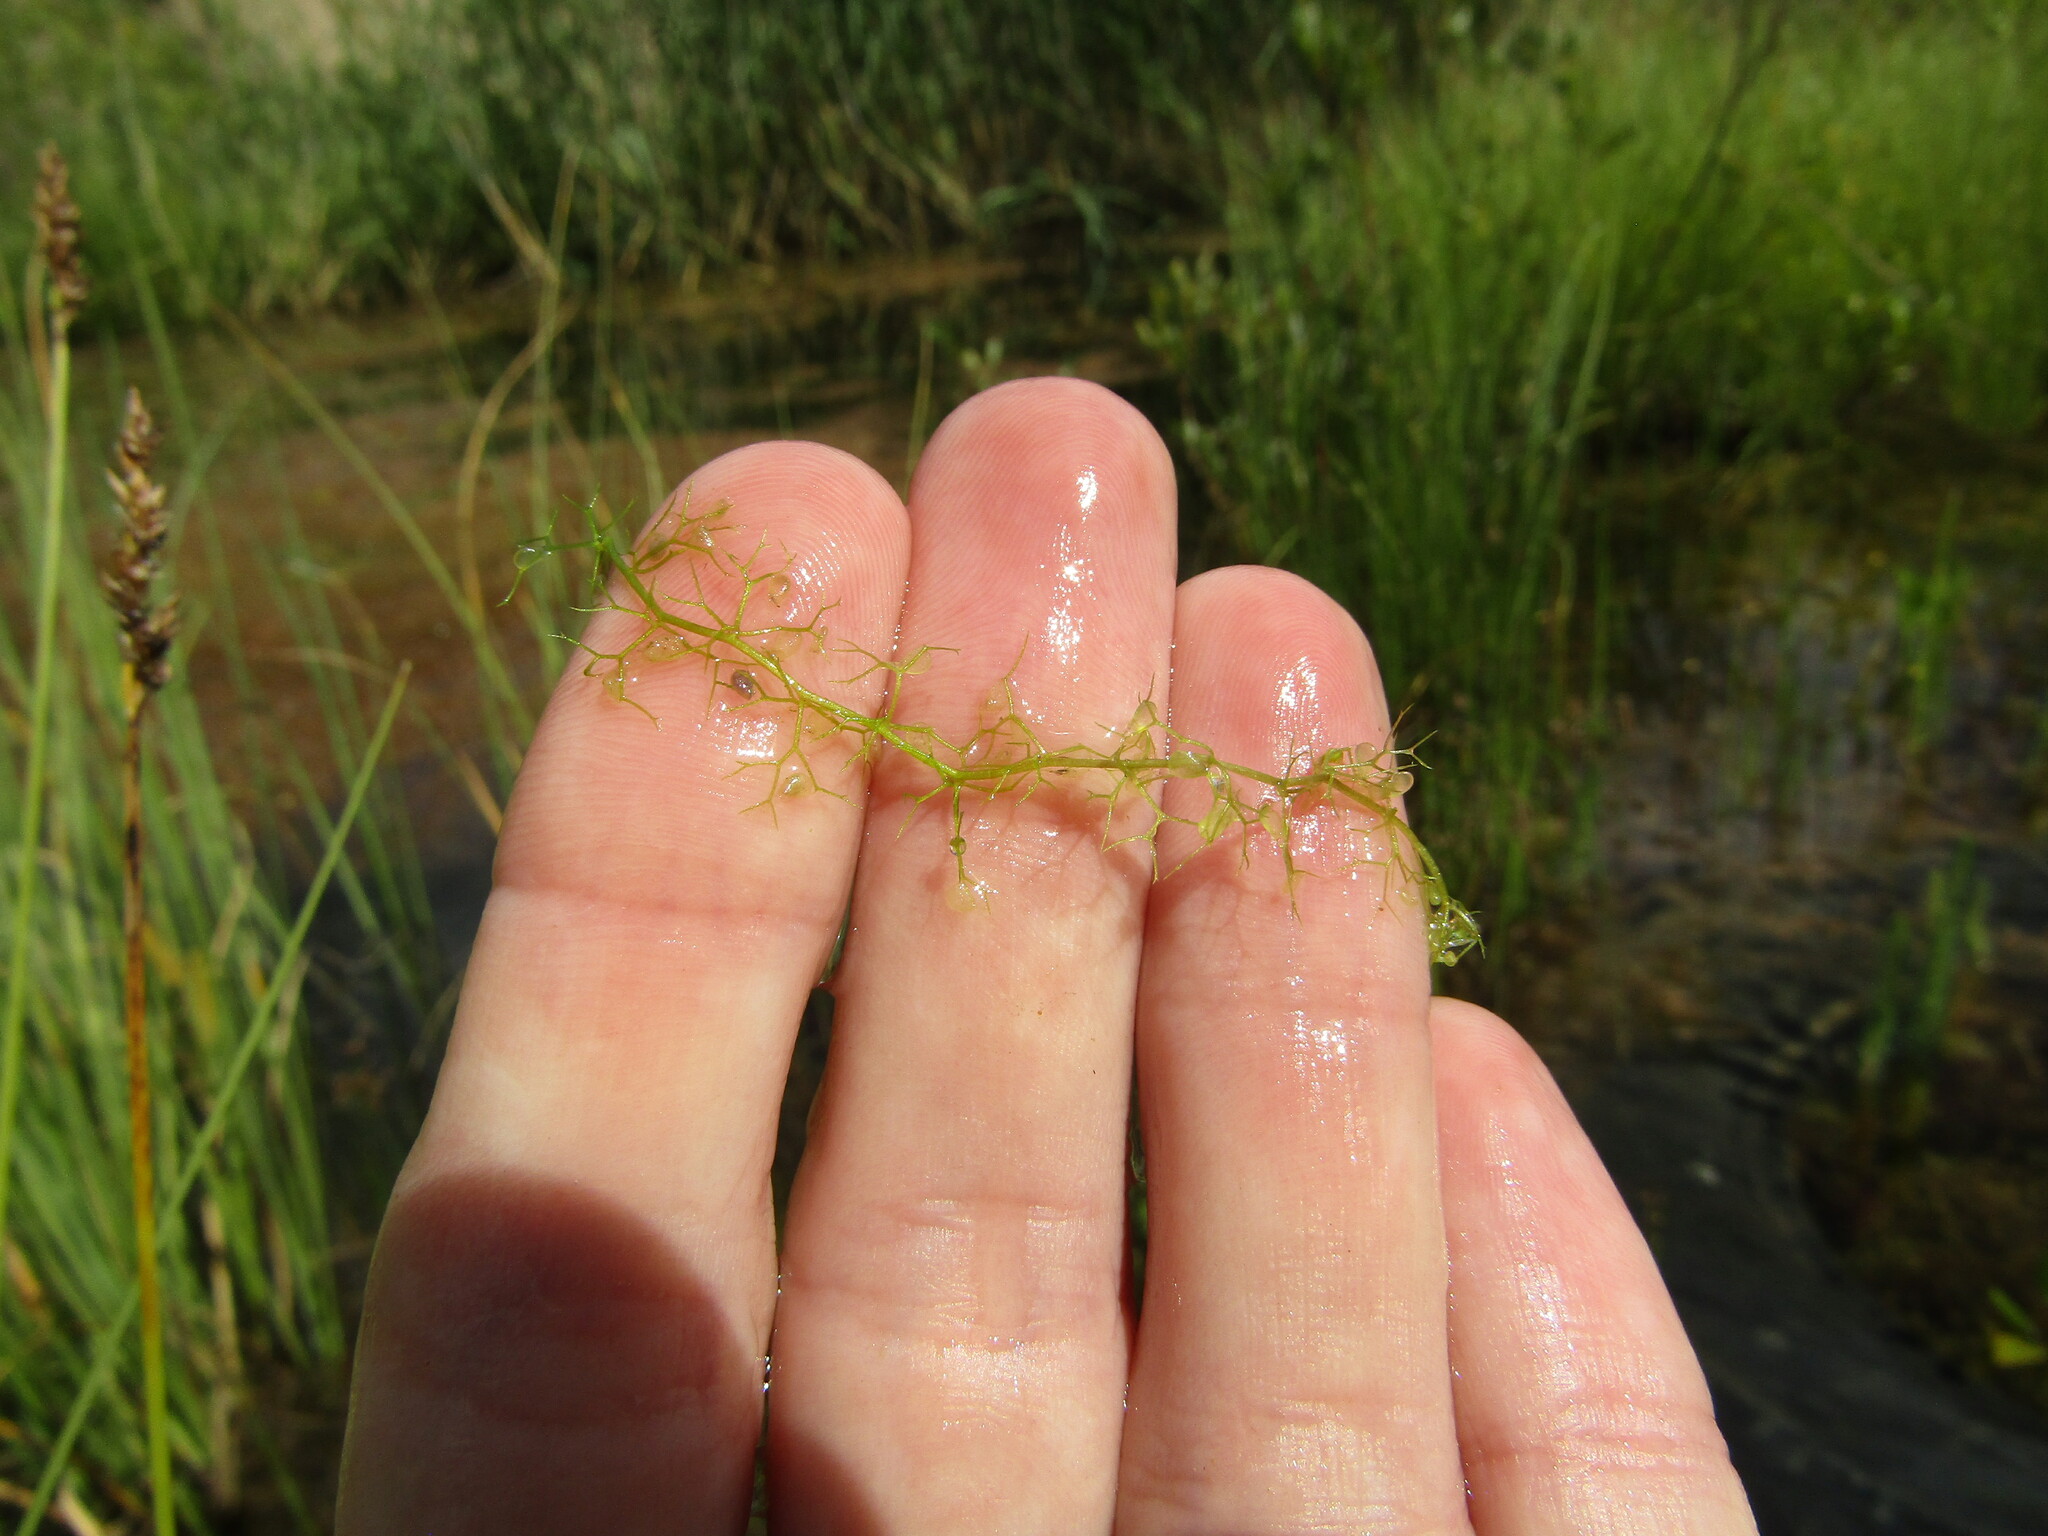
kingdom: Plantae
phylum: Tracheophyta
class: Magnoliopsida
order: Lamiales
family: Lentibulariaceae
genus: Utricularia
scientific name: Utricularia minor
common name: Lesser bladderwort
